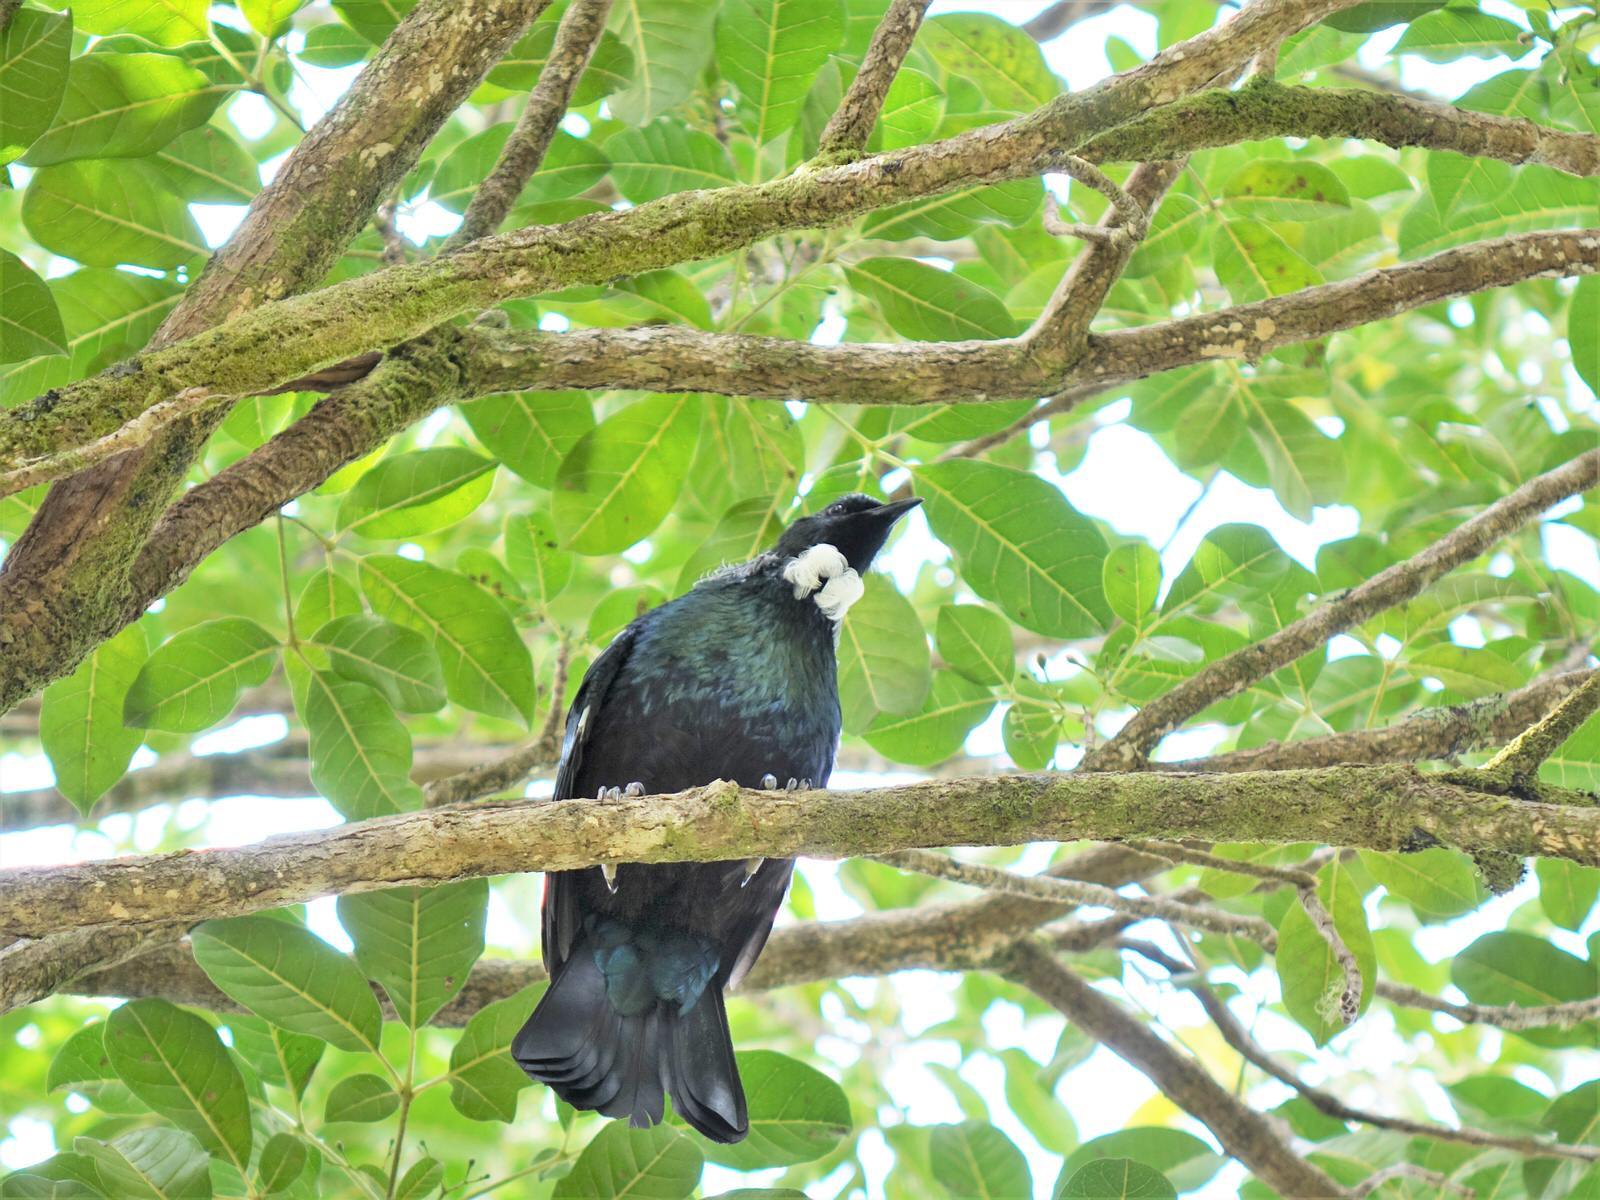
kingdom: Animalia
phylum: Chordata
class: Aves
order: Passeriformes
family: Meliphagidae
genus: Prosthemadera
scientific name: Prosthemadera novaeseelandiae
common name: Tui
